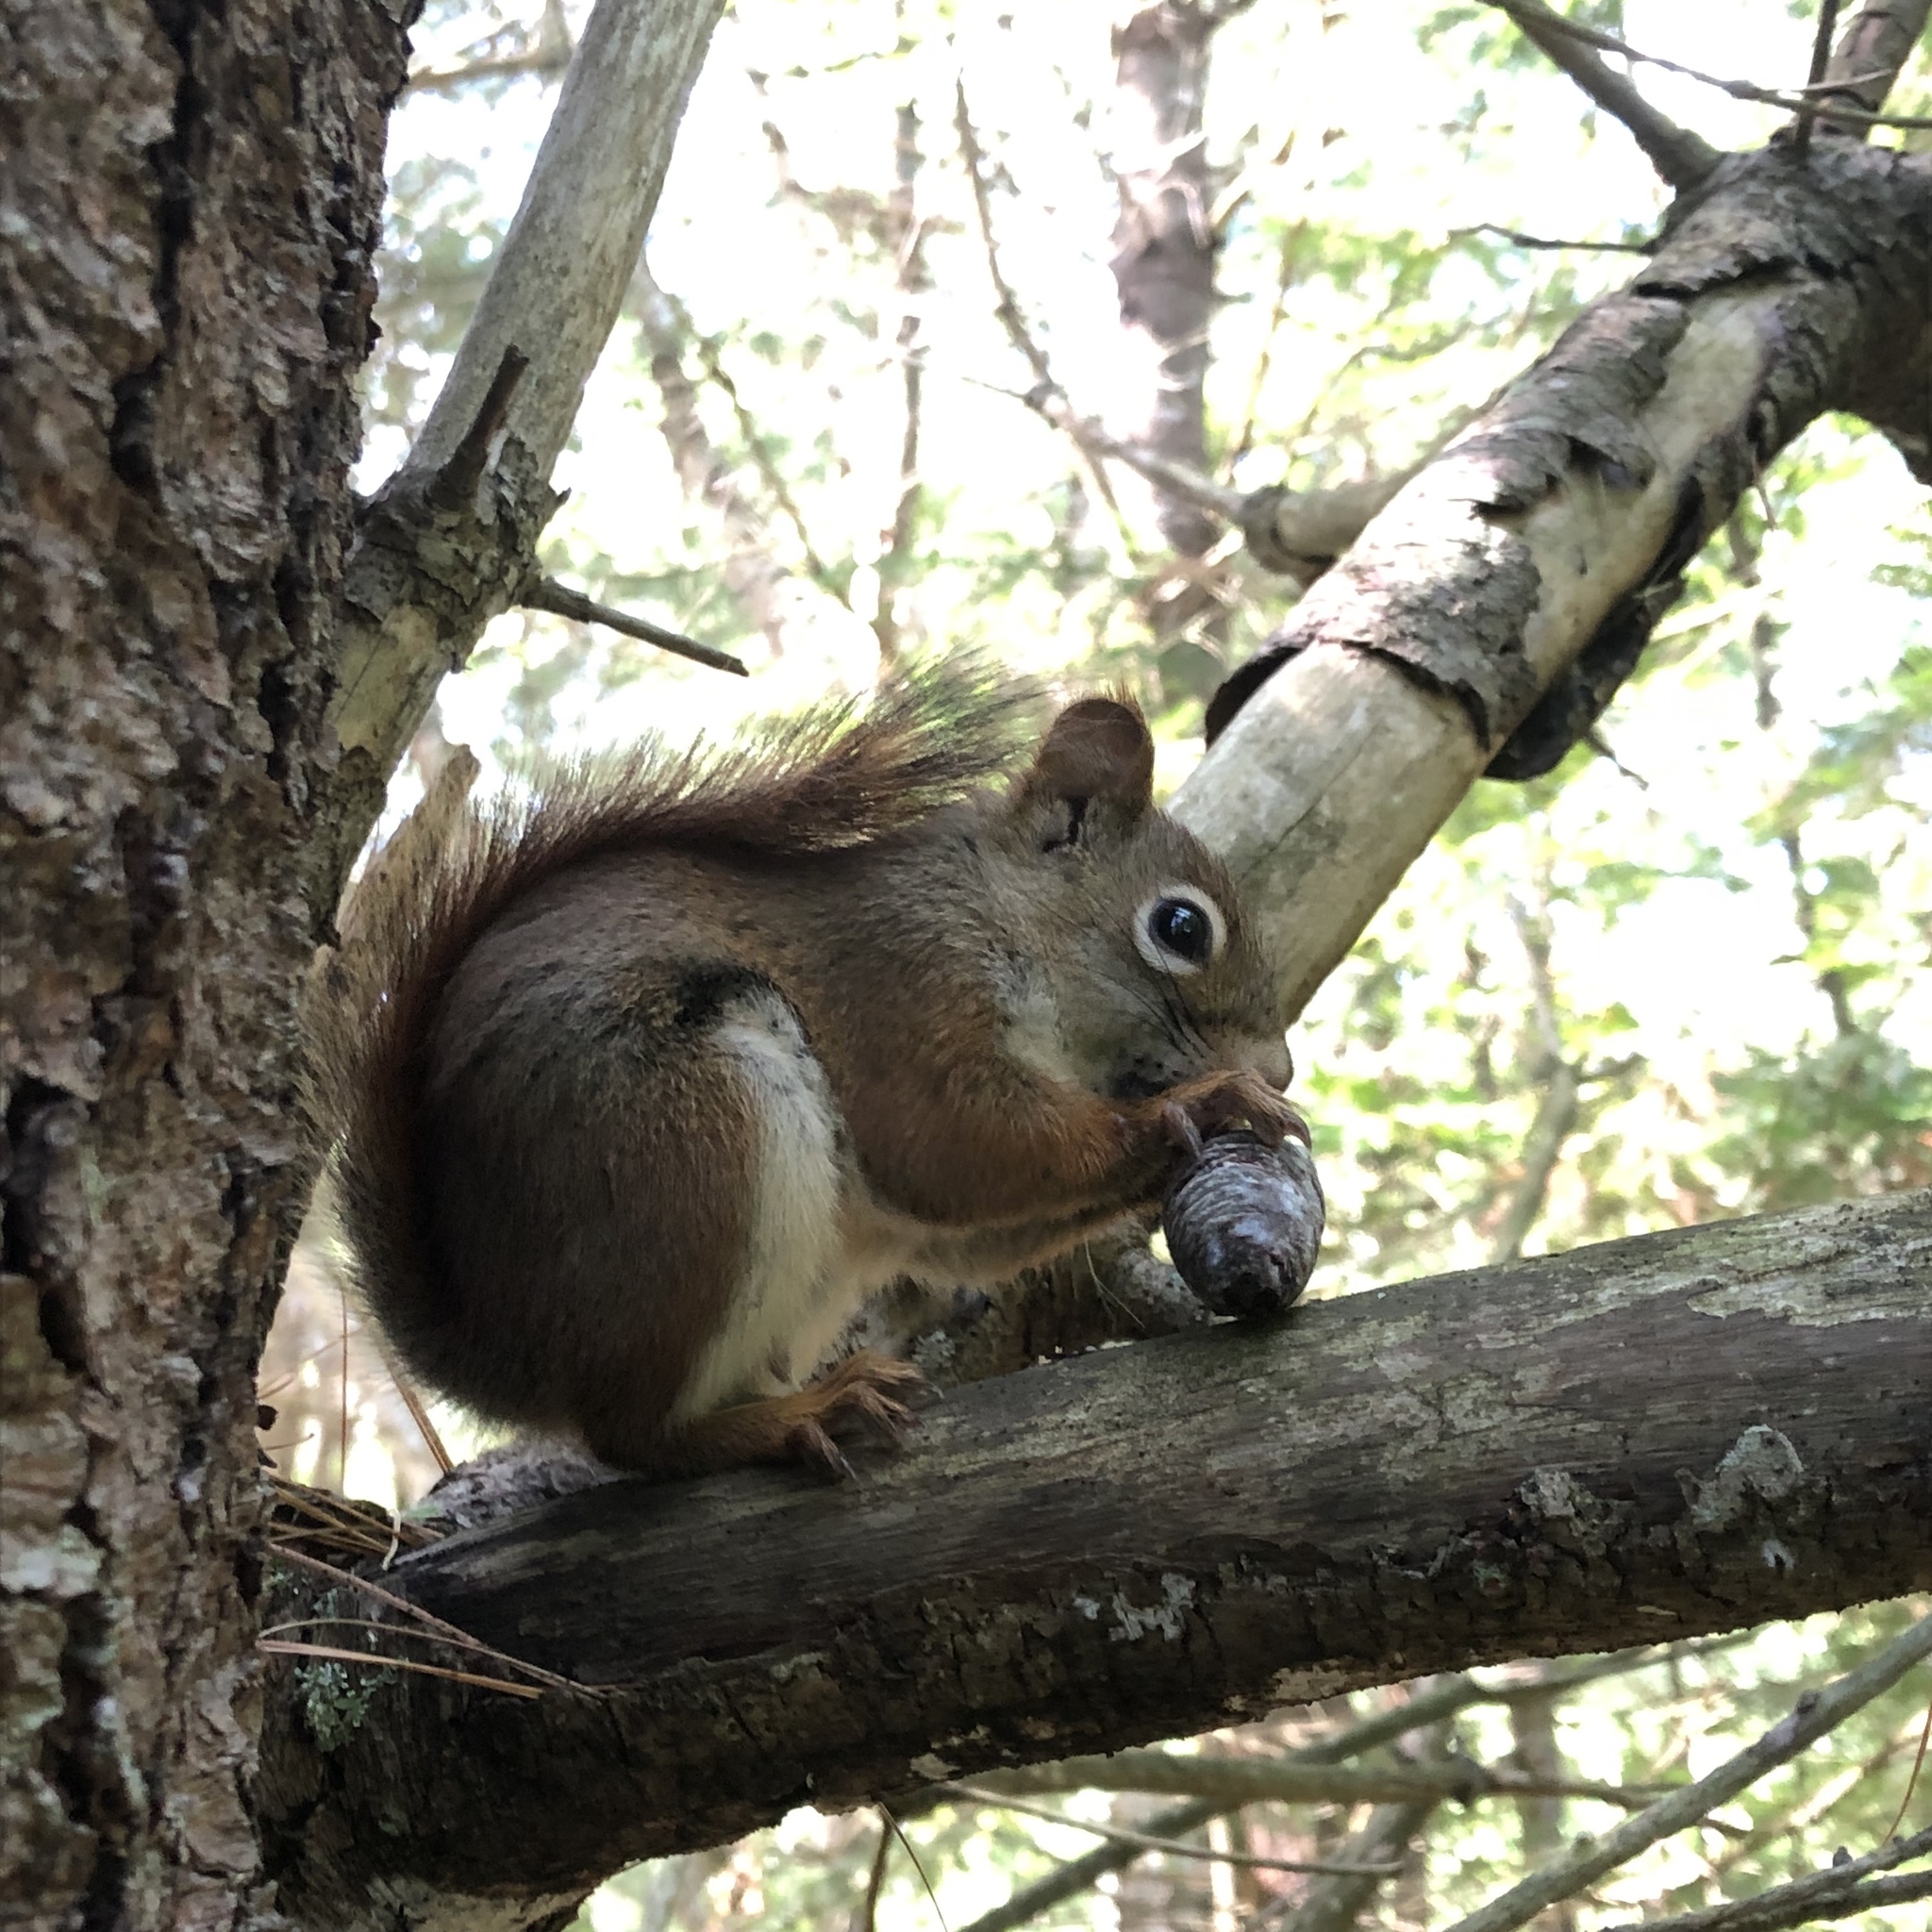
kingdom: Animalia
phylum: Chordata
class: Mammalia
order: Rodentia
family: Sciuridae
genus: Tamiasciurus
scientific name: Tamiasciurus hudsonicus
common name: Red squirrel
